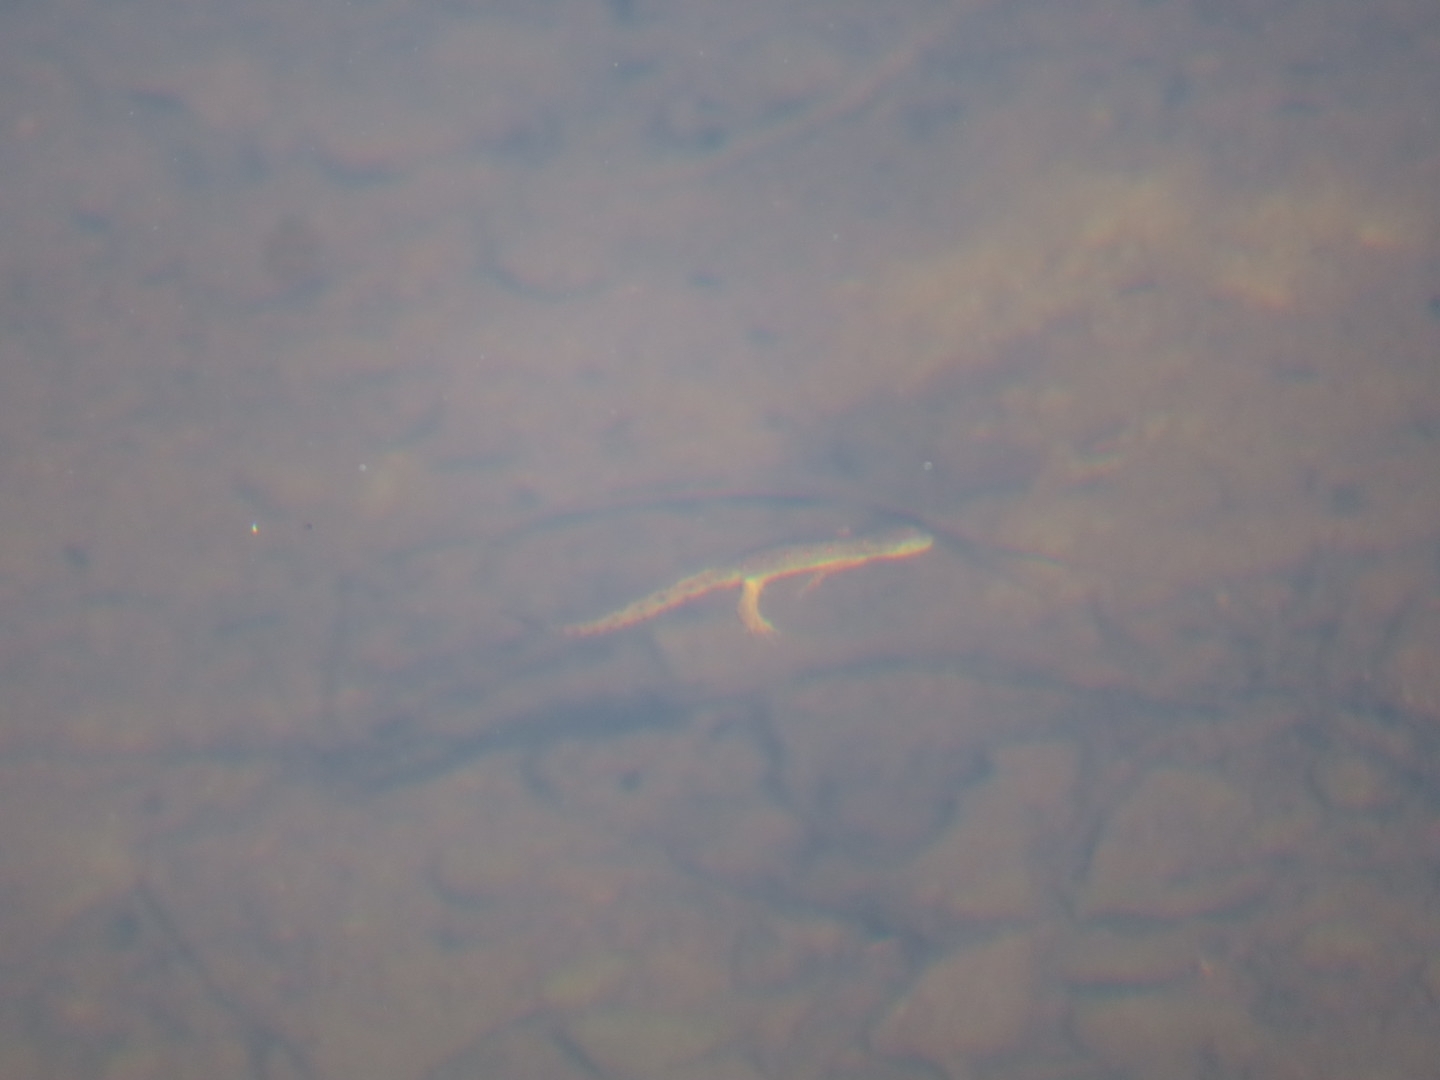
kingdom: Animalia
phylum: Chordata
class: Amphibia
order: Caudata
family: Salamandridae
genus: Notophthalmus
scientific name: Notophthalmus viridescens
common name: Eastern newt
